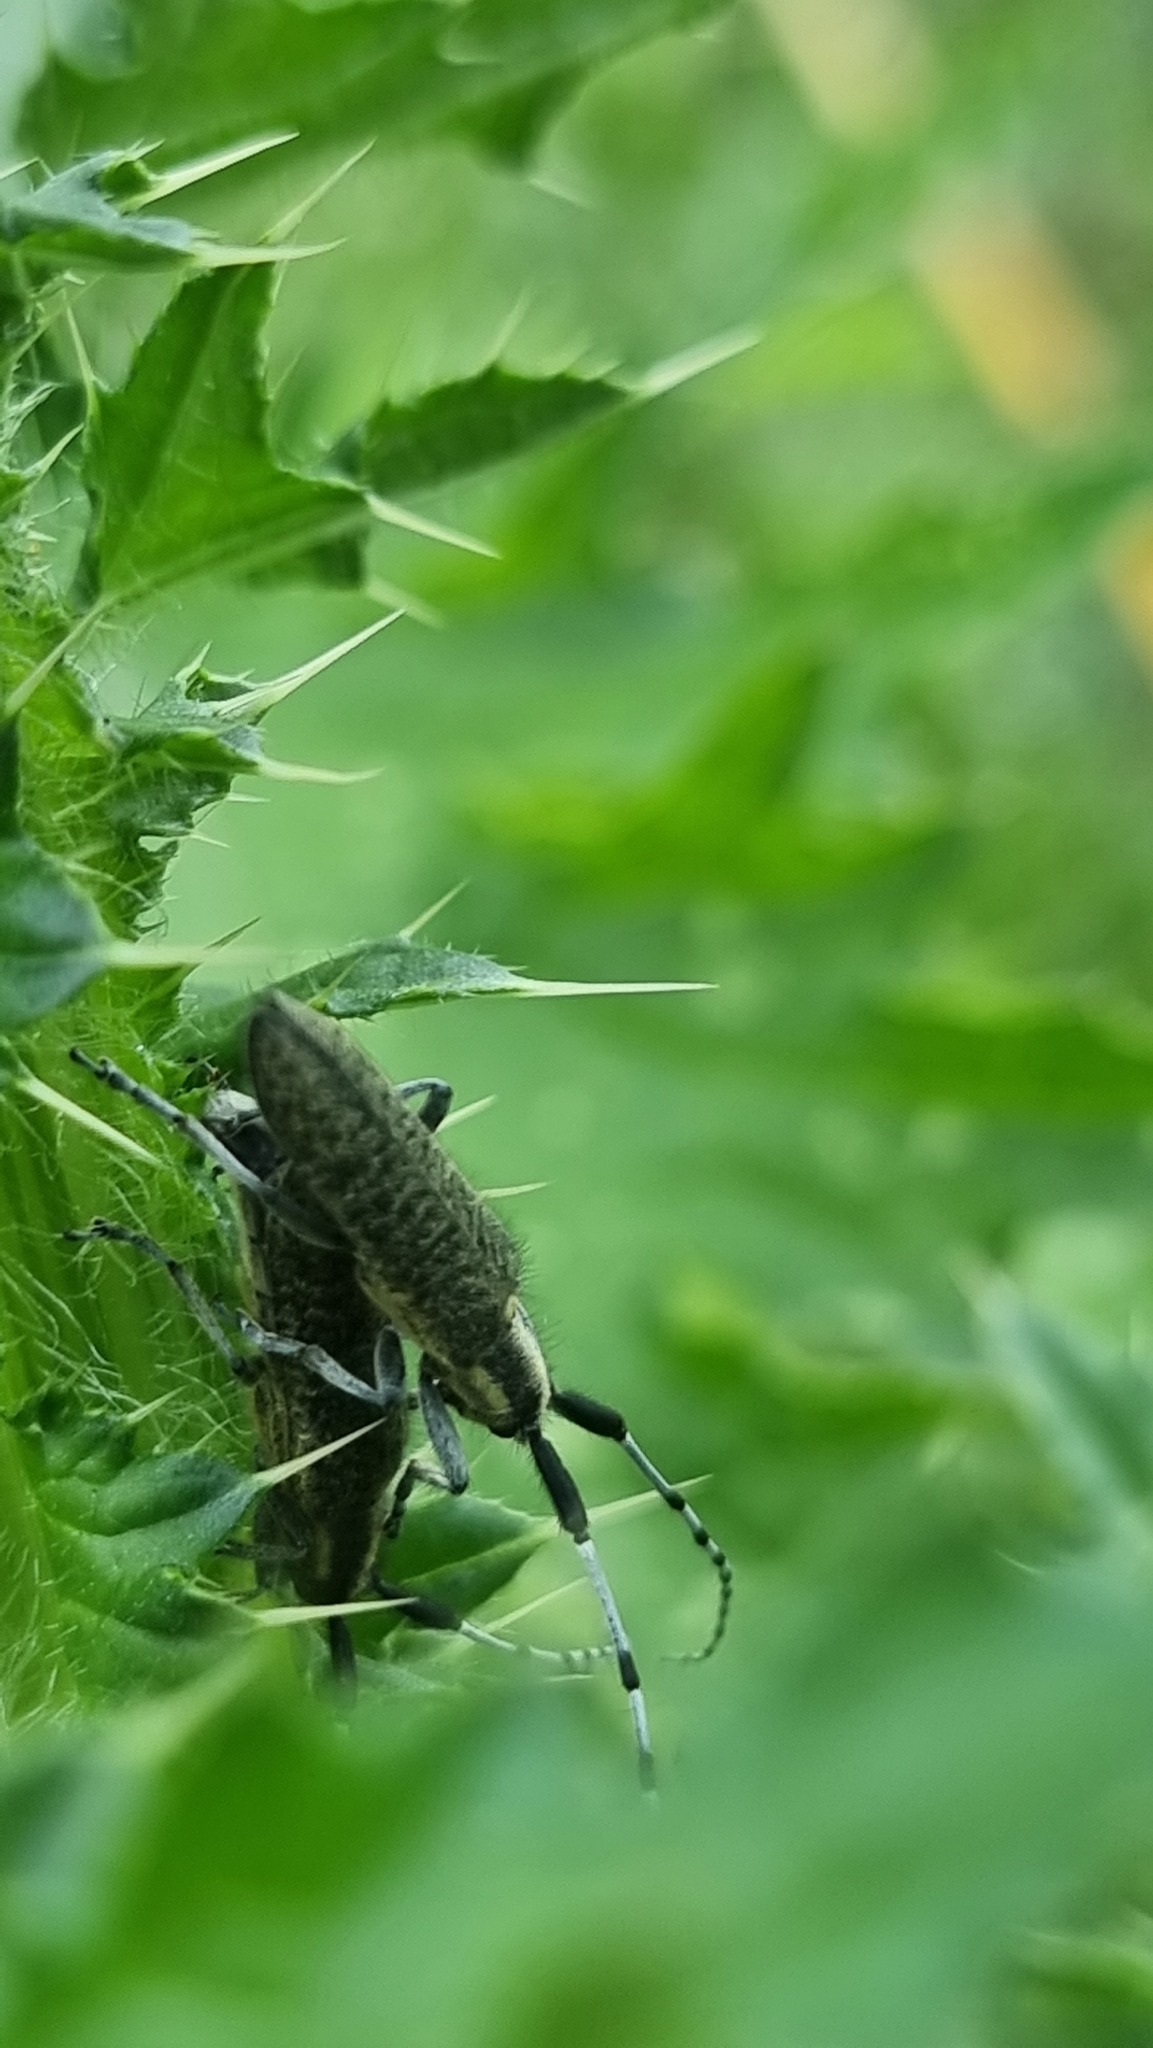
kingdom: Animalia
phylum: Arthropoda
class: Insecta
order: Coleoptera
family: Cerambycidae
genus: Agapanthia
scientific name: Agapanthia villosoviridescens
